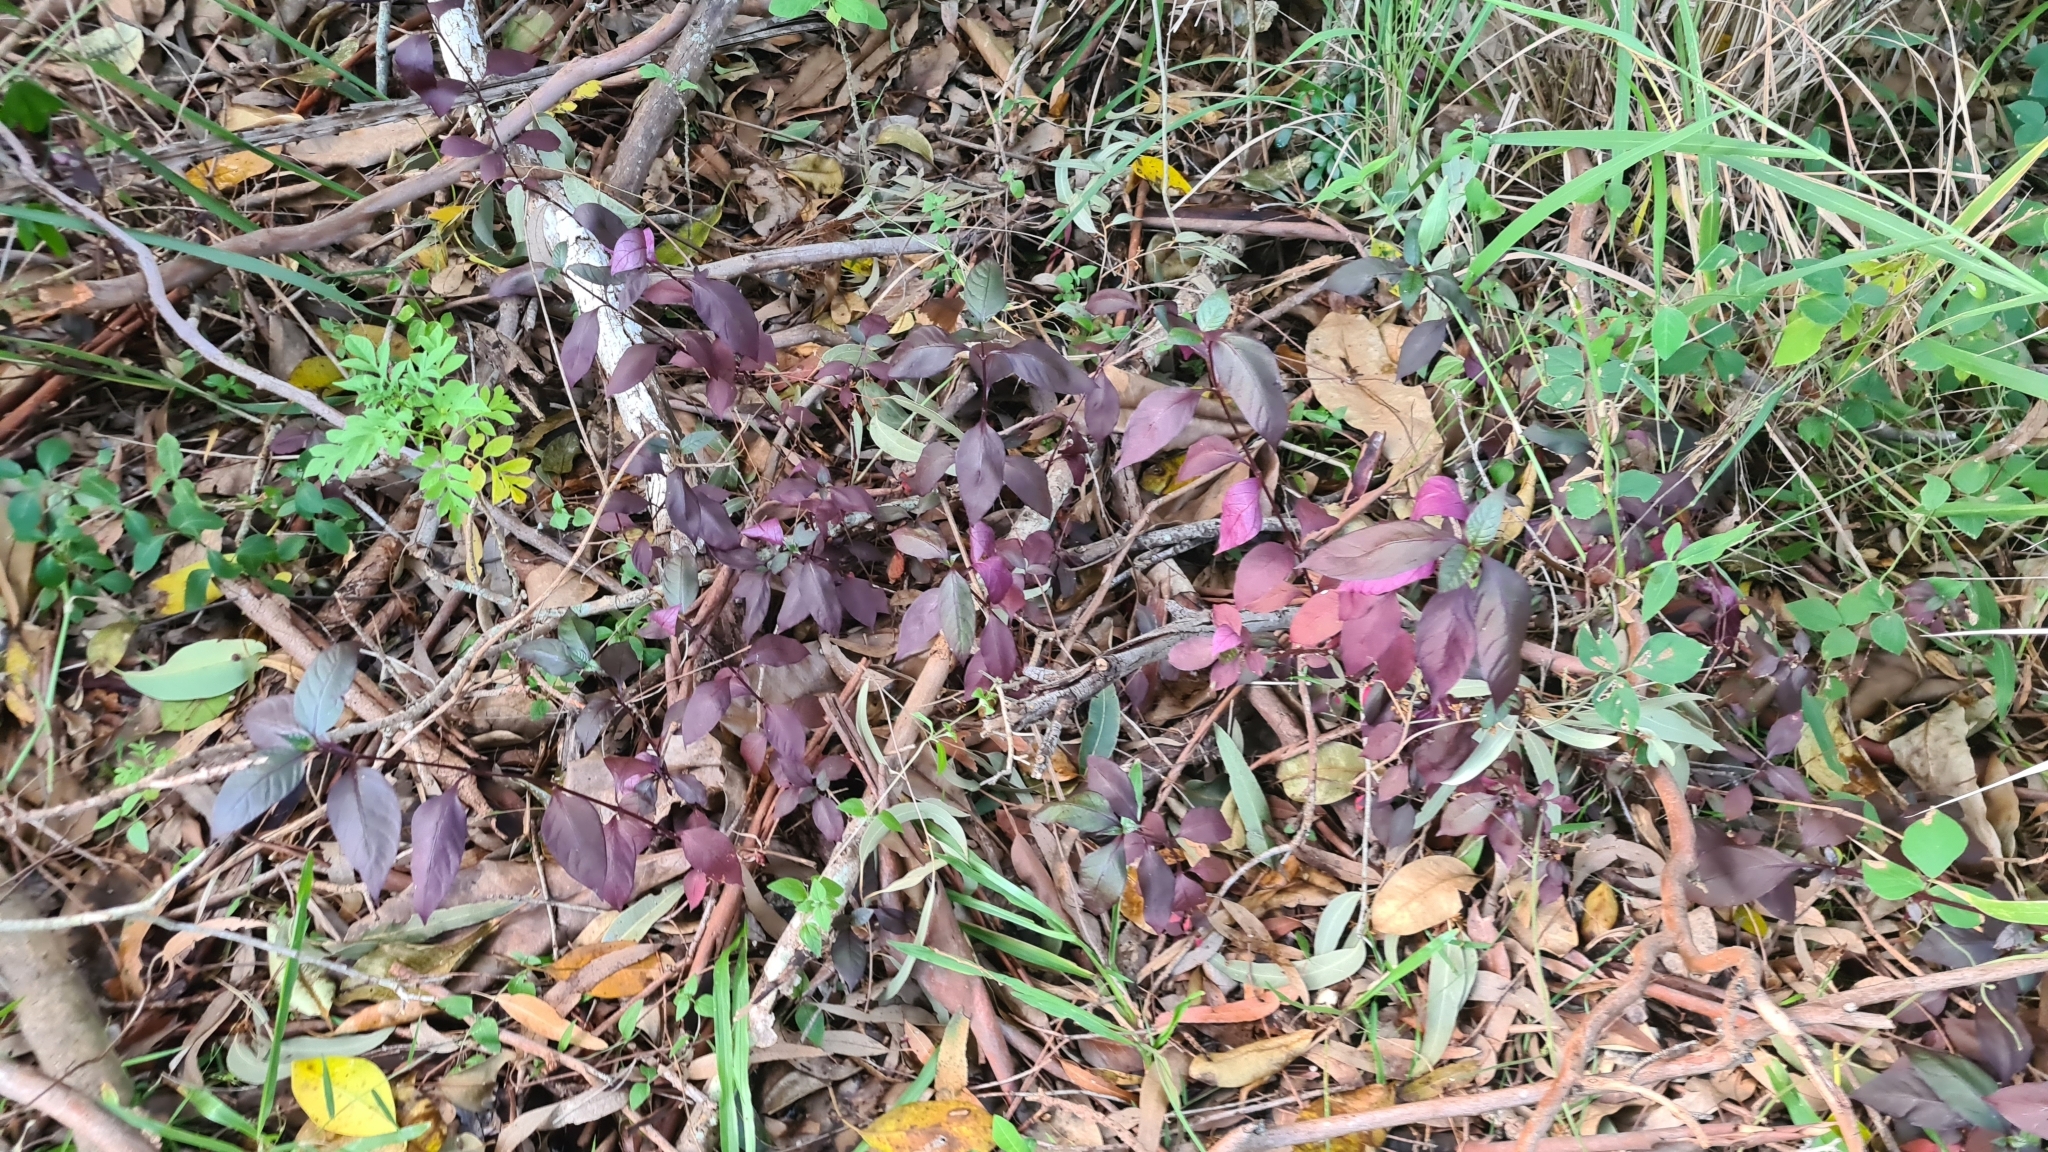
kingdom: Plantae
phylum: Tracheophyta
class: Magnoliopsida
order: Caryophyllales
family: Amaranthaceae
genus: Alternanthera
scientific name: Alternanthera brasiliana
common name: Brazilian joyweed
